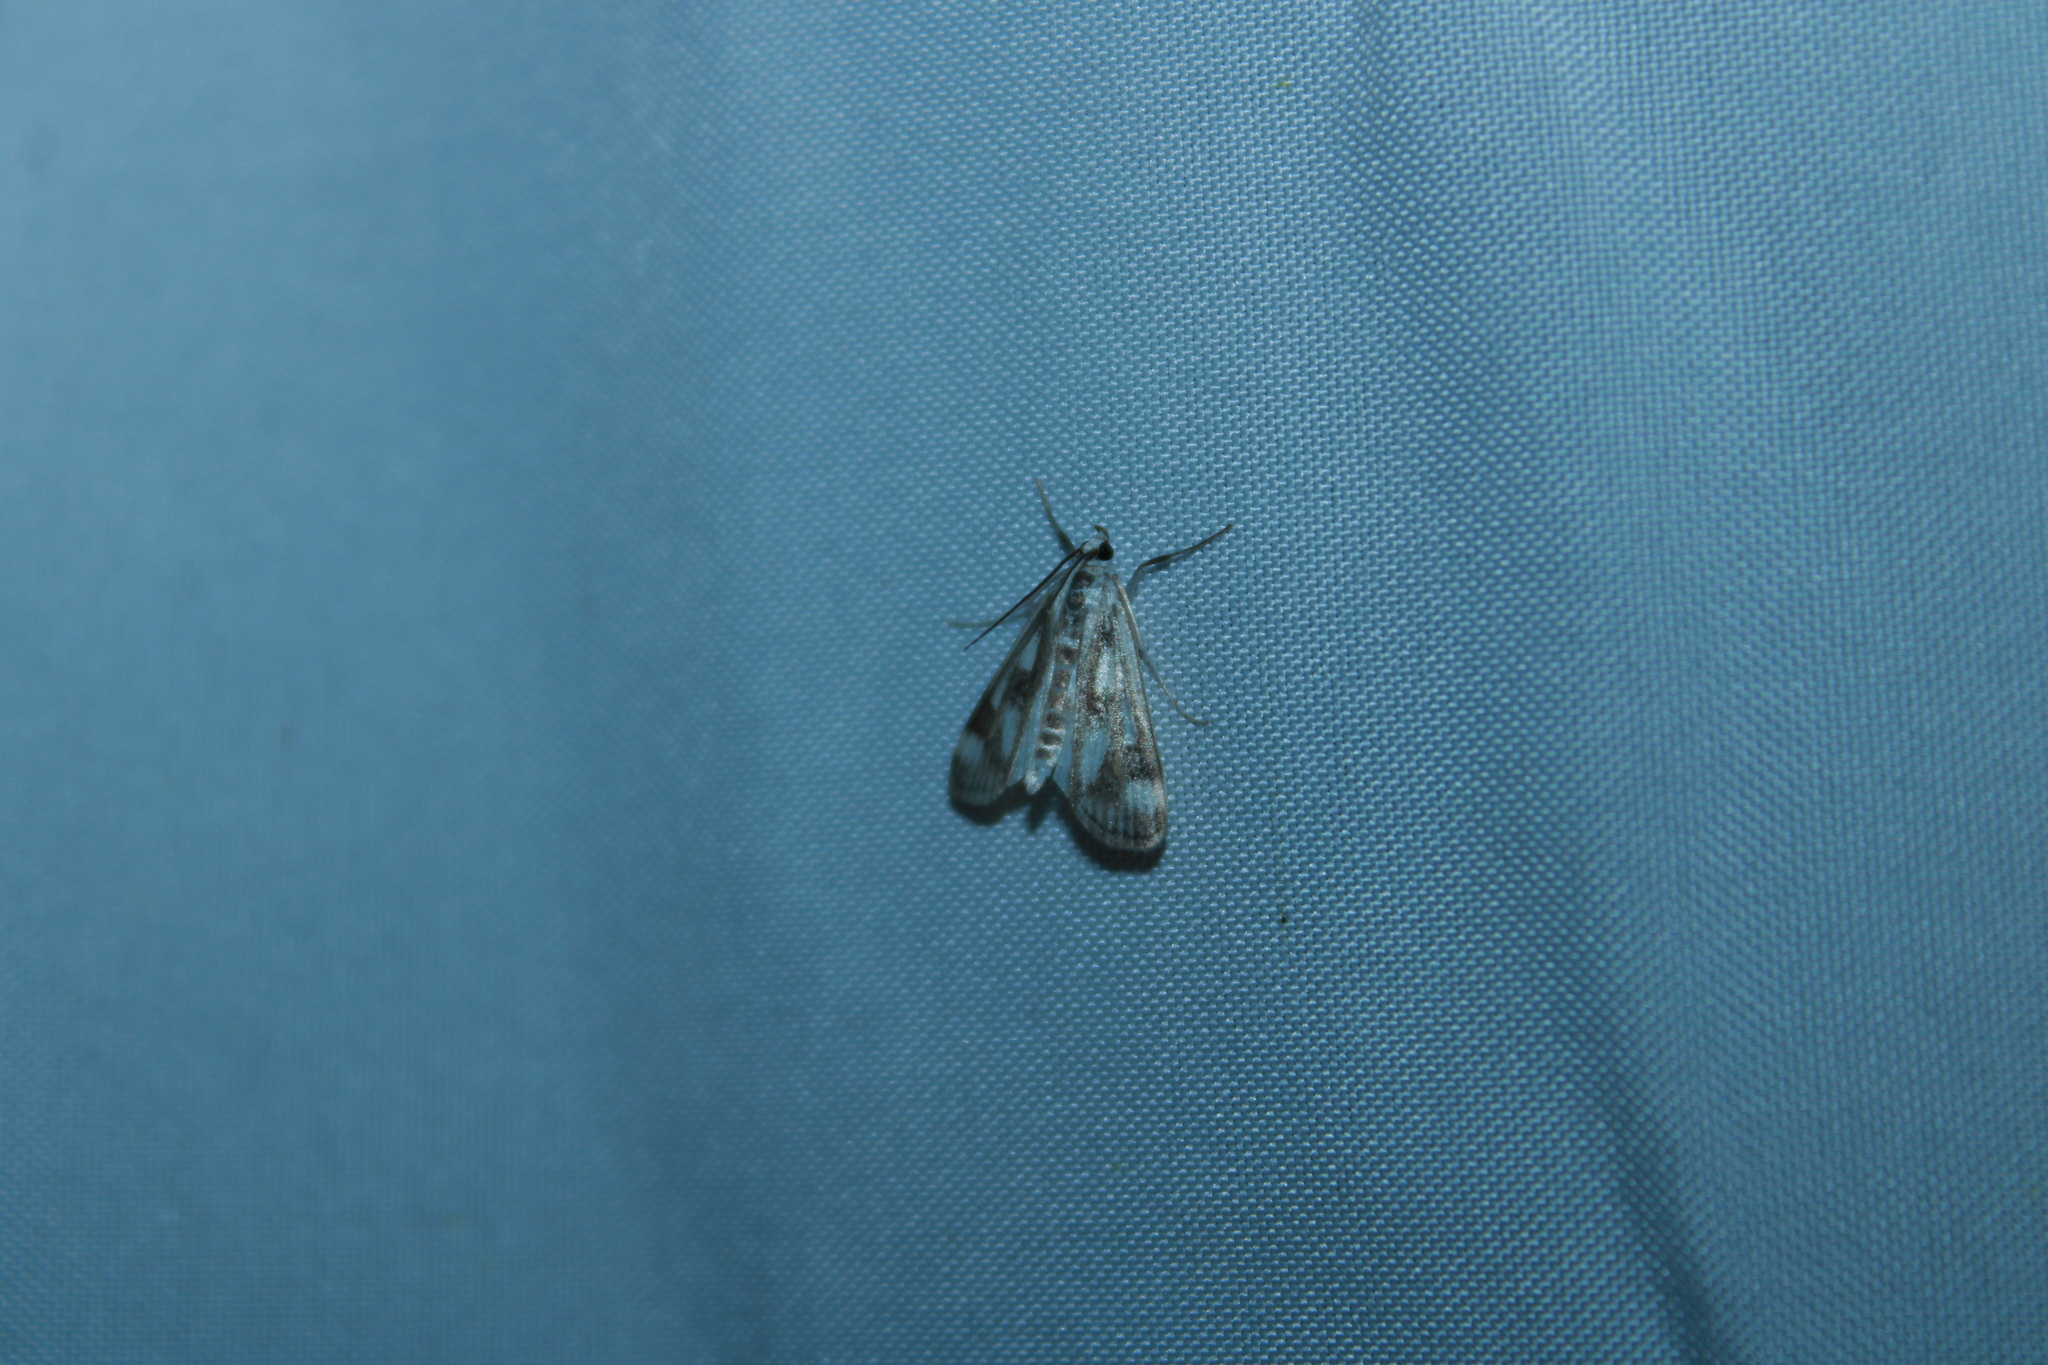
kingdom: Animalia
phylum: Arthropoda
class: Insecta
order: Lepidoptera
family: Crambidae
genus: Parapoynx
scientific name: Parapoynx maculalis
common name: Polymorphic pondweed moth
